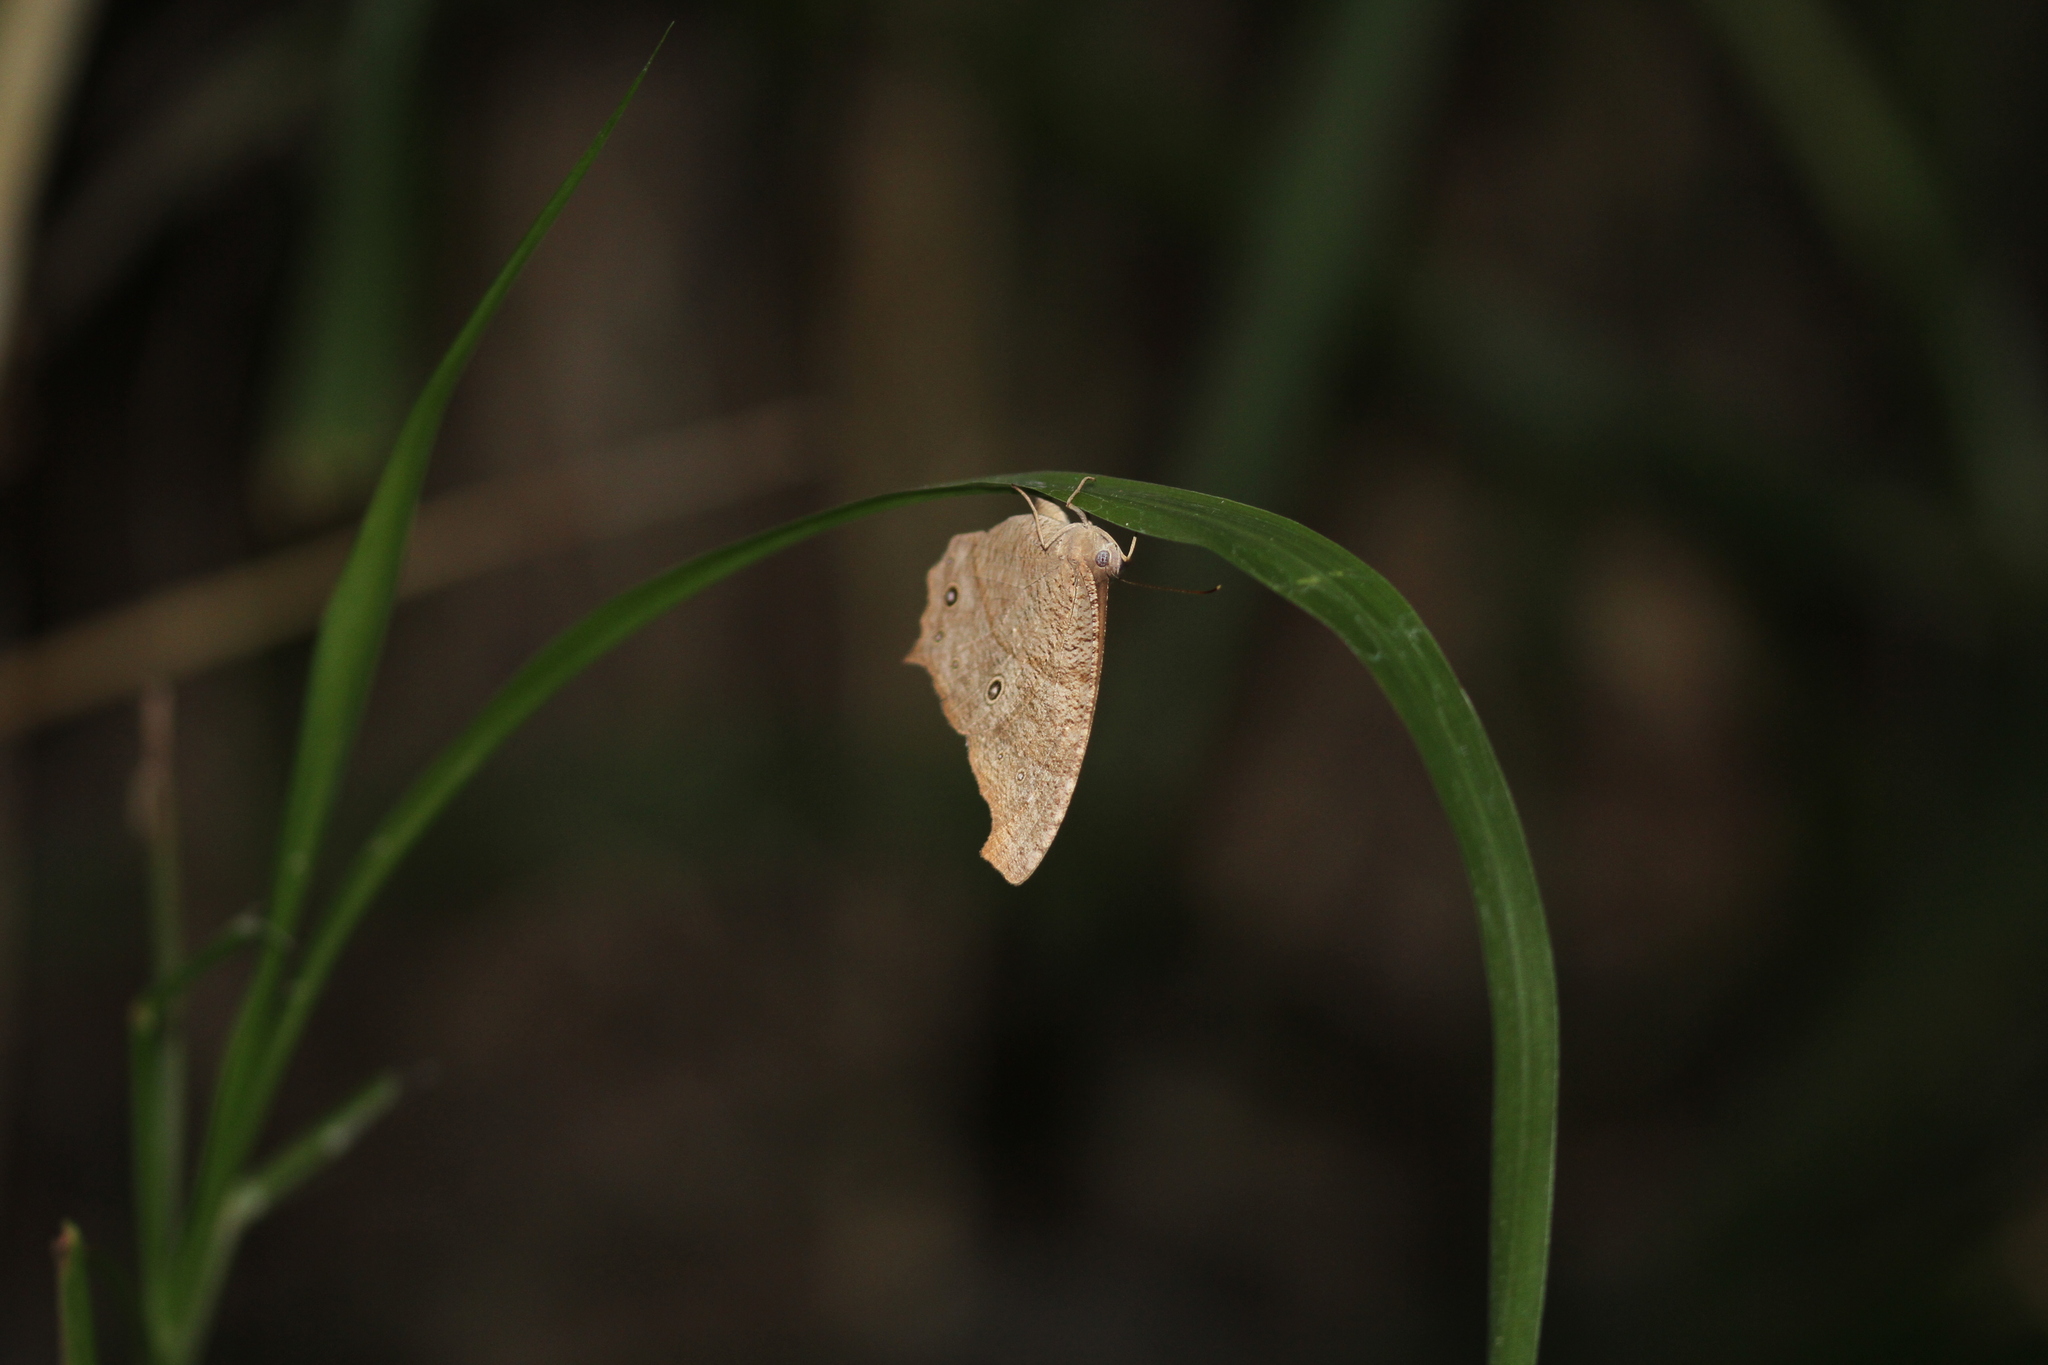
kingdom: Animalia
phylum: Arthropoda
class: Insecta
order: Lepidoptera
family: Nymphalidae
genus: Melanitis
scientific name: Melanitis leda
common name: Twilight brown
